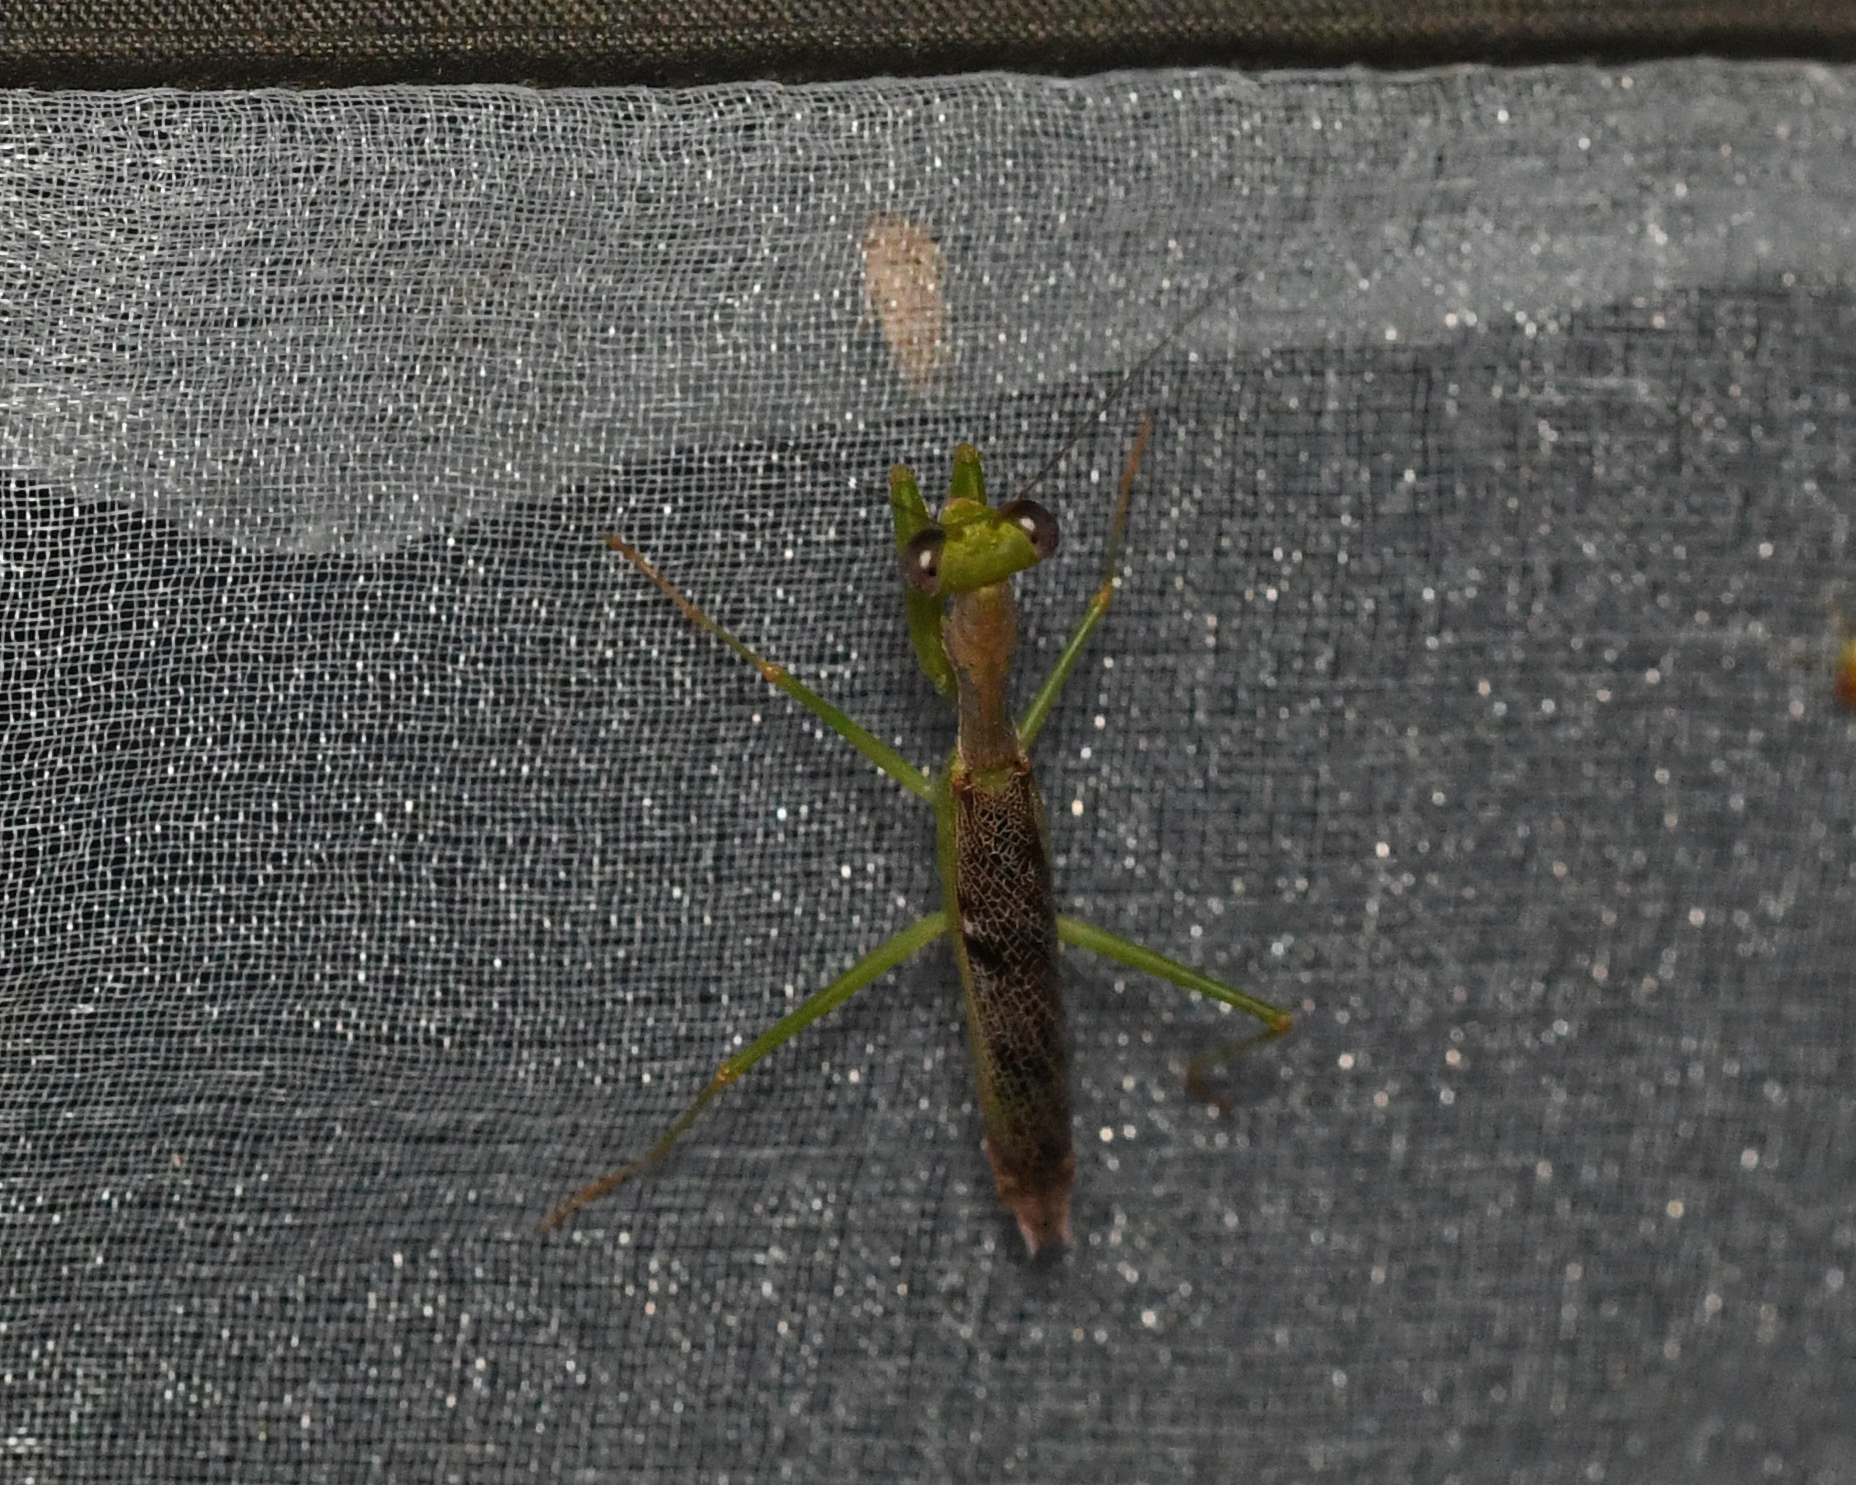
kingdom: Animalia
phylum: Arthropoda
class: Insecta
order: Mantodea
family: Epaphroditidae
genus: Callimantis
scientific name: Callimantis antillarum
